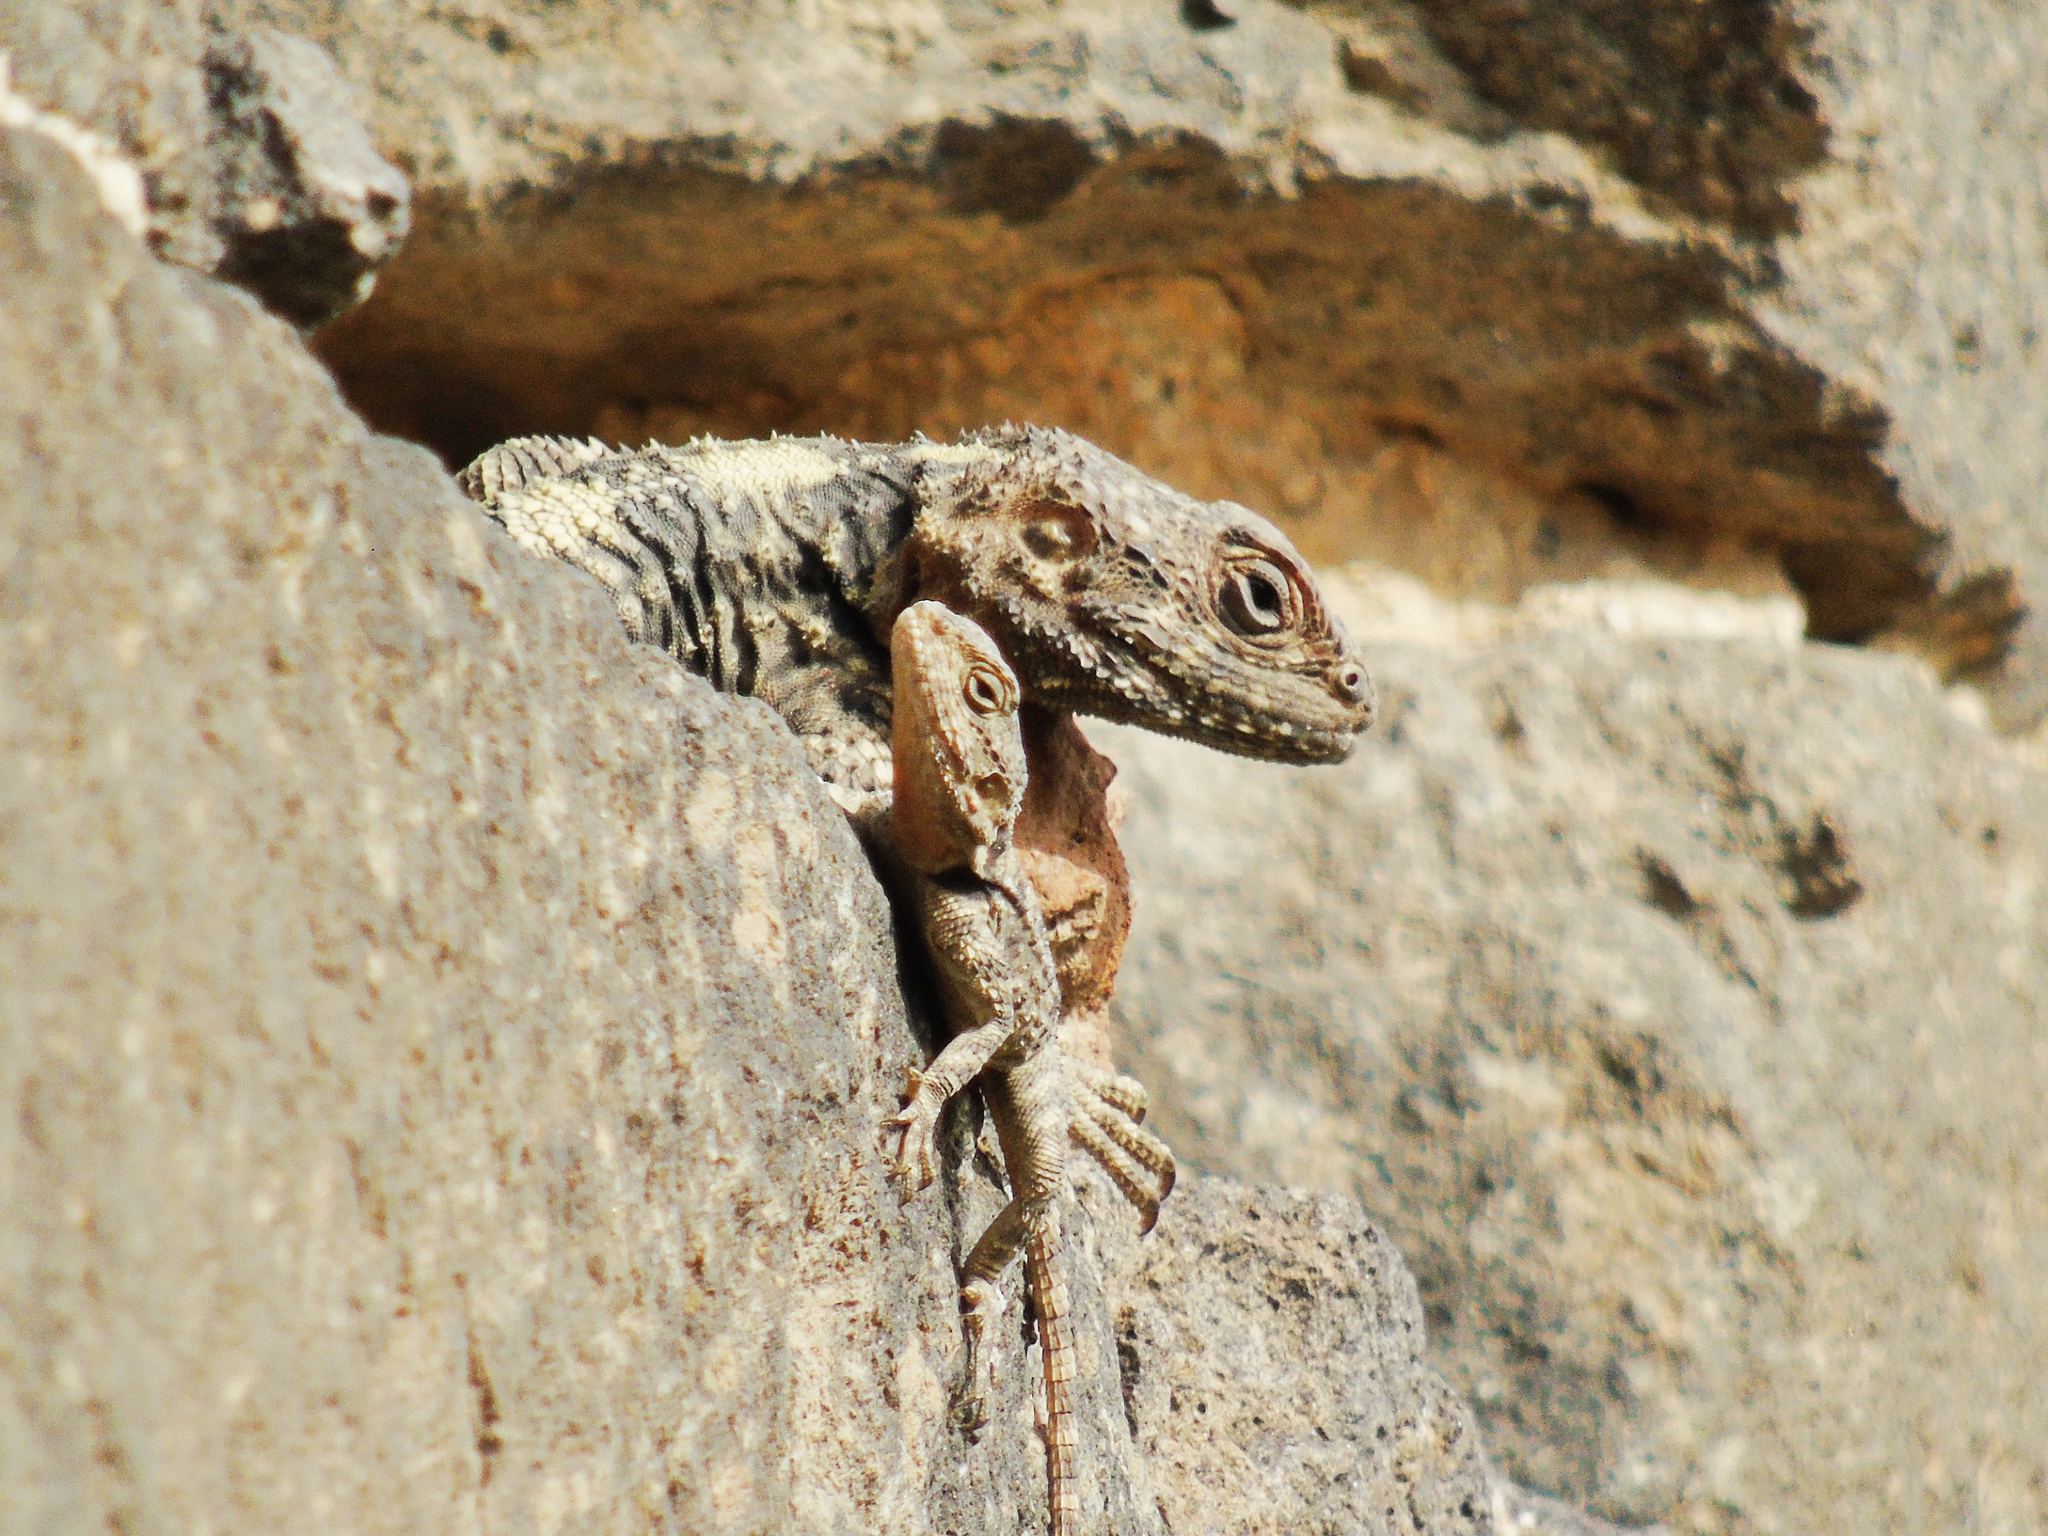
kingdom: Animalia
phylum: Chordata
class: Squamata
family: Agamidae
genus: Stellagama
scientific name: Stellagama stellio
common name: Starred agama
